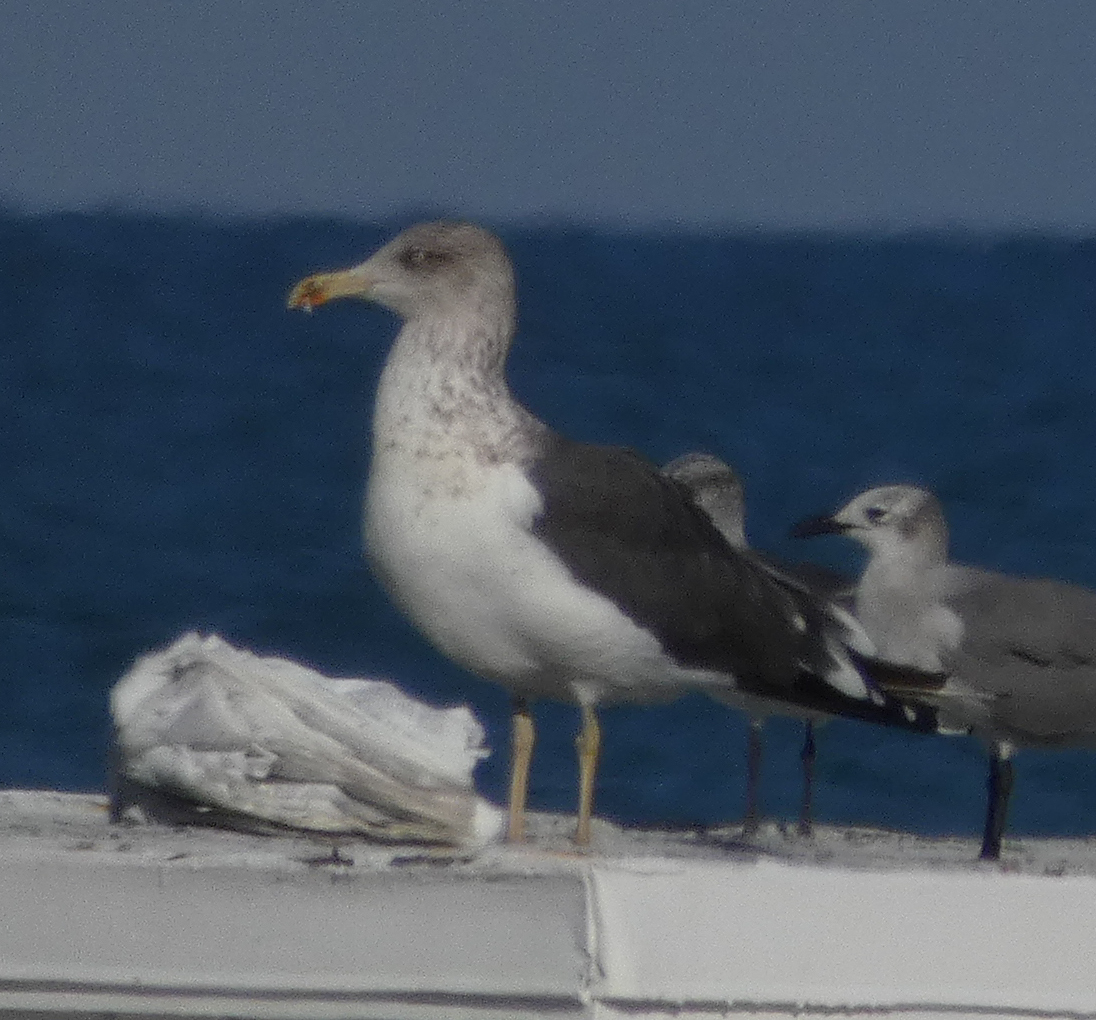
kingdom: Animalia
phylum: Chordata
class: Aves
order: Charadriiformes
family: Laridae
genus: Larus
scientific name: Larus fuscus
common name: Lesser black-backed gull
